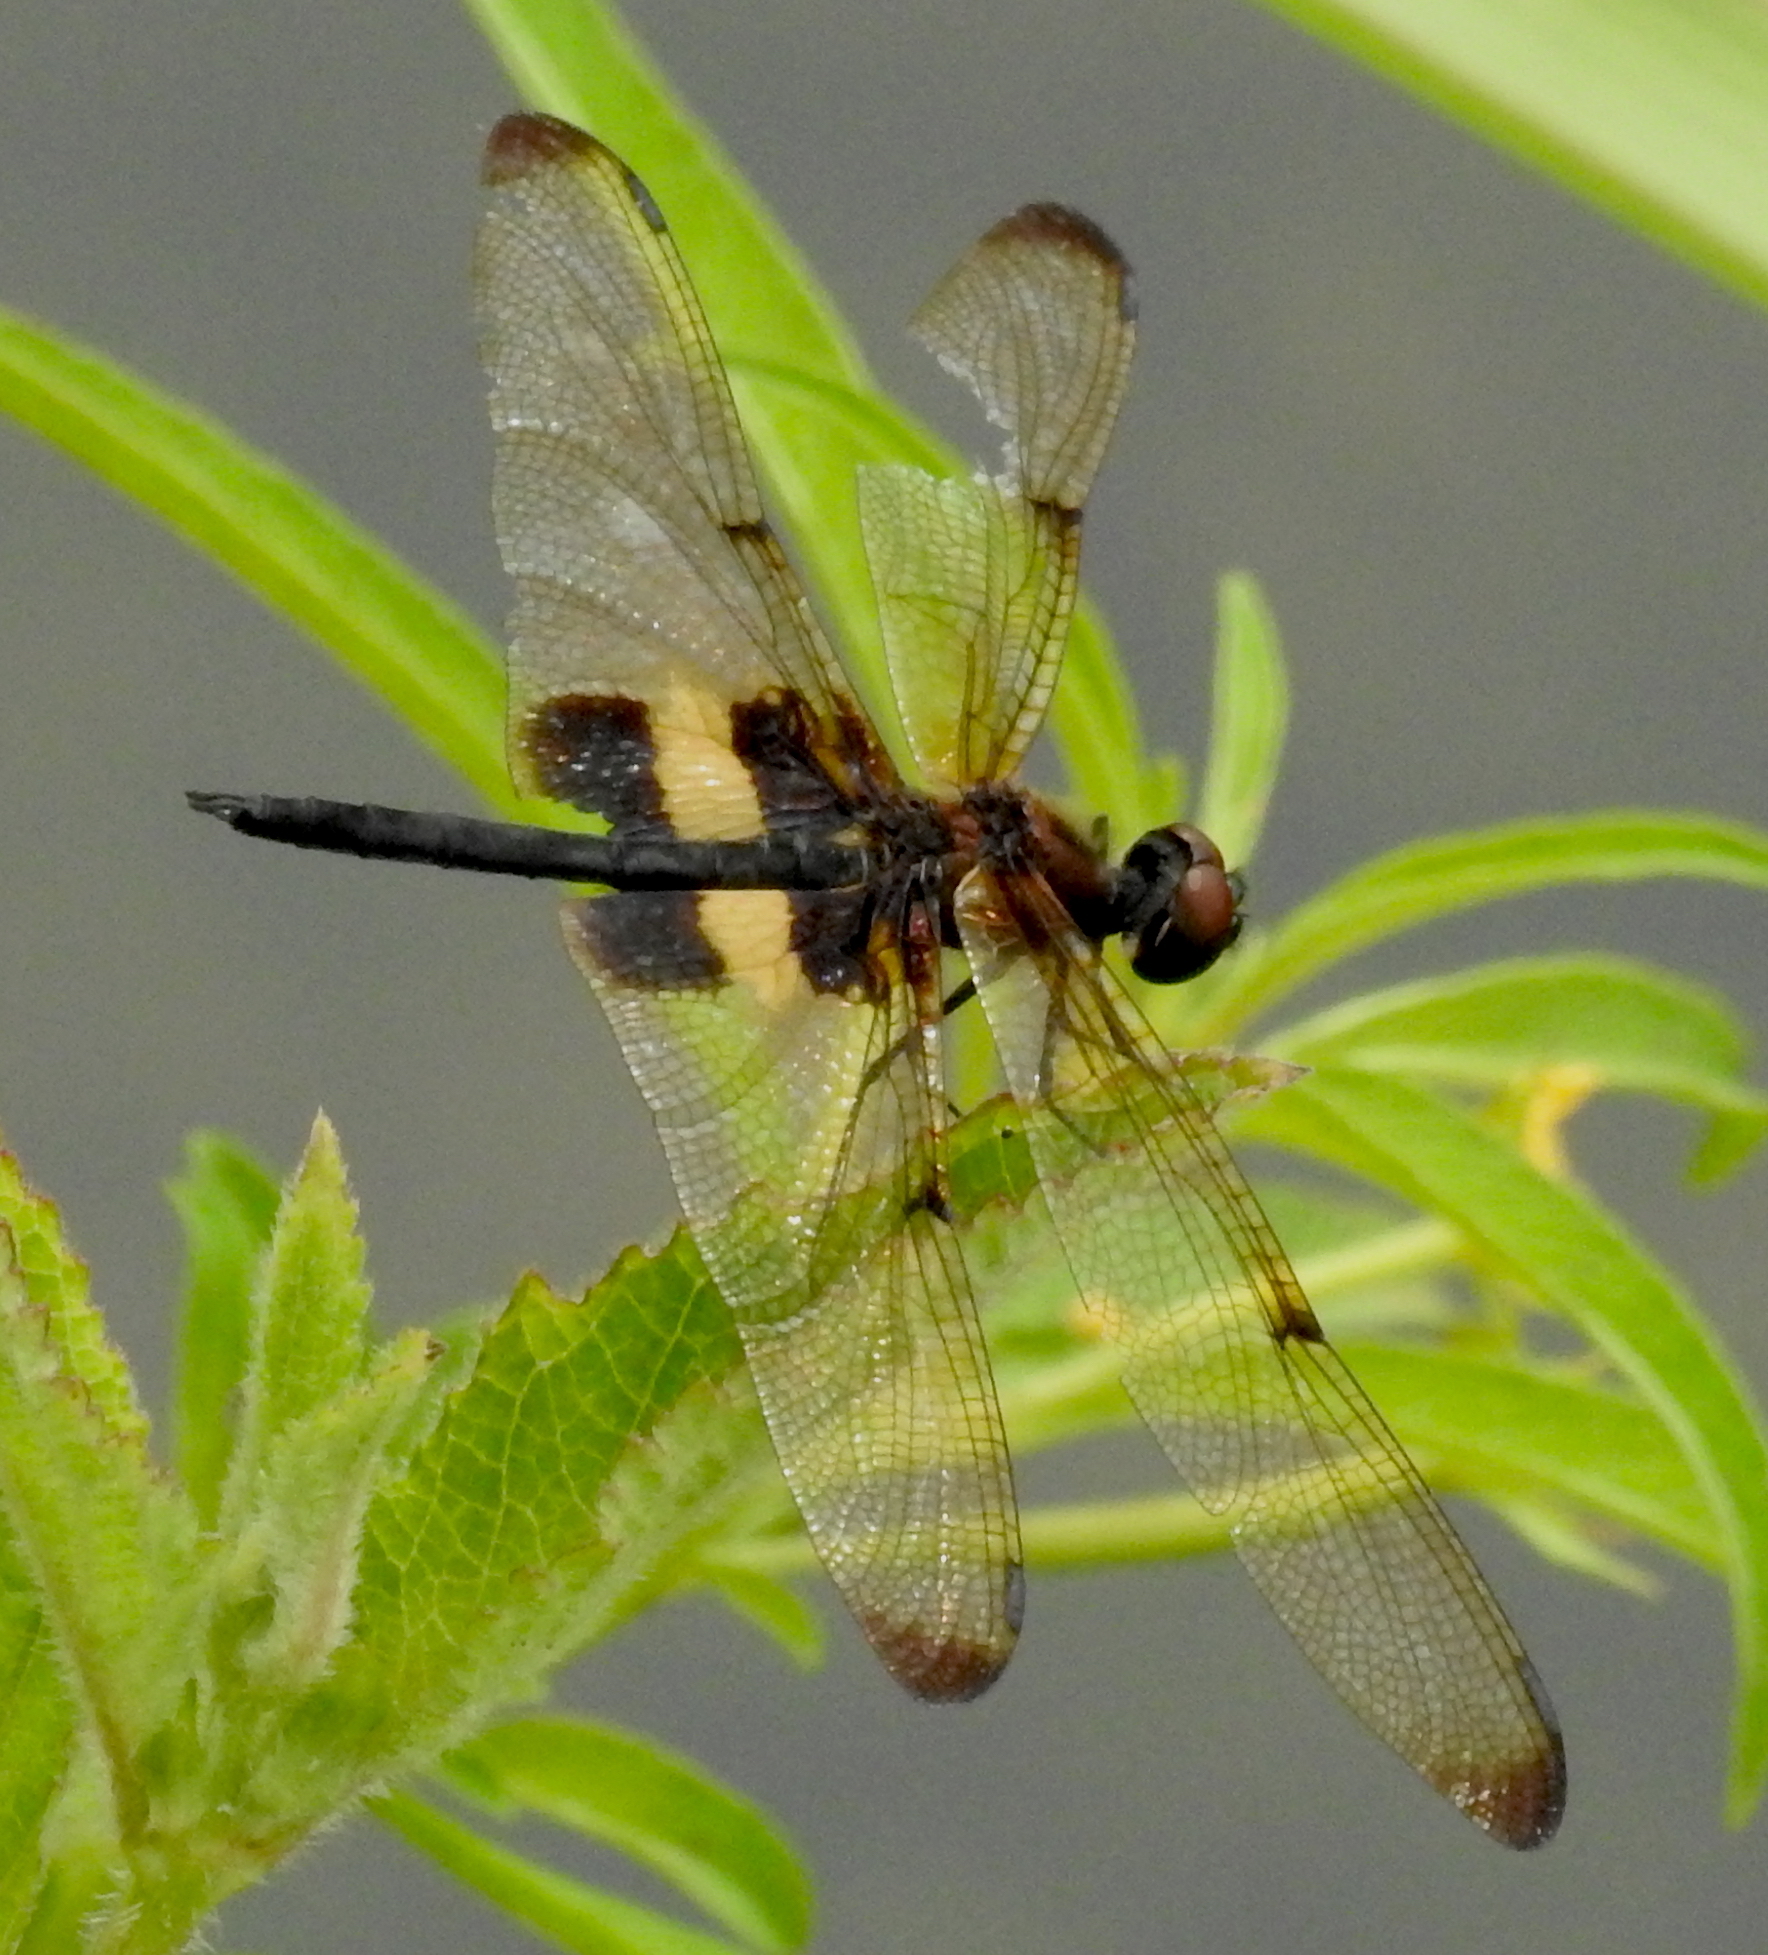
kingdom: Animalia
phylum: Arthropoda
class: Insecta
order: Odonata
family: Libellulidae
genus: Rhyothemis
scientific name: Rhyothemis phyllis
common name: Yellow-barred flutterer
